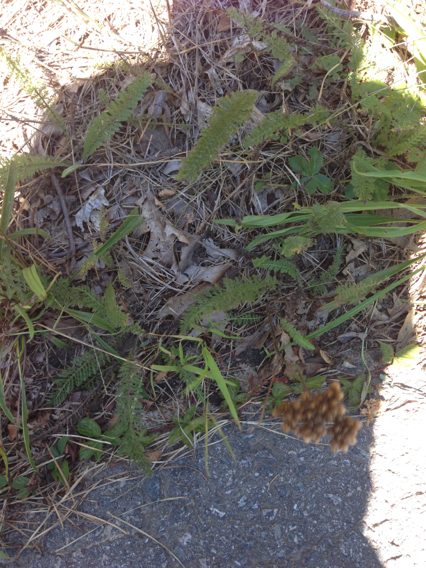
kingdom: Plantae
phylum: Tracheophyta
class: Magnoliopsida
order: Asterales
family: Asteraceae
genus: Achillea
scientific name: Achillea millefolium
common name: Yarrow
